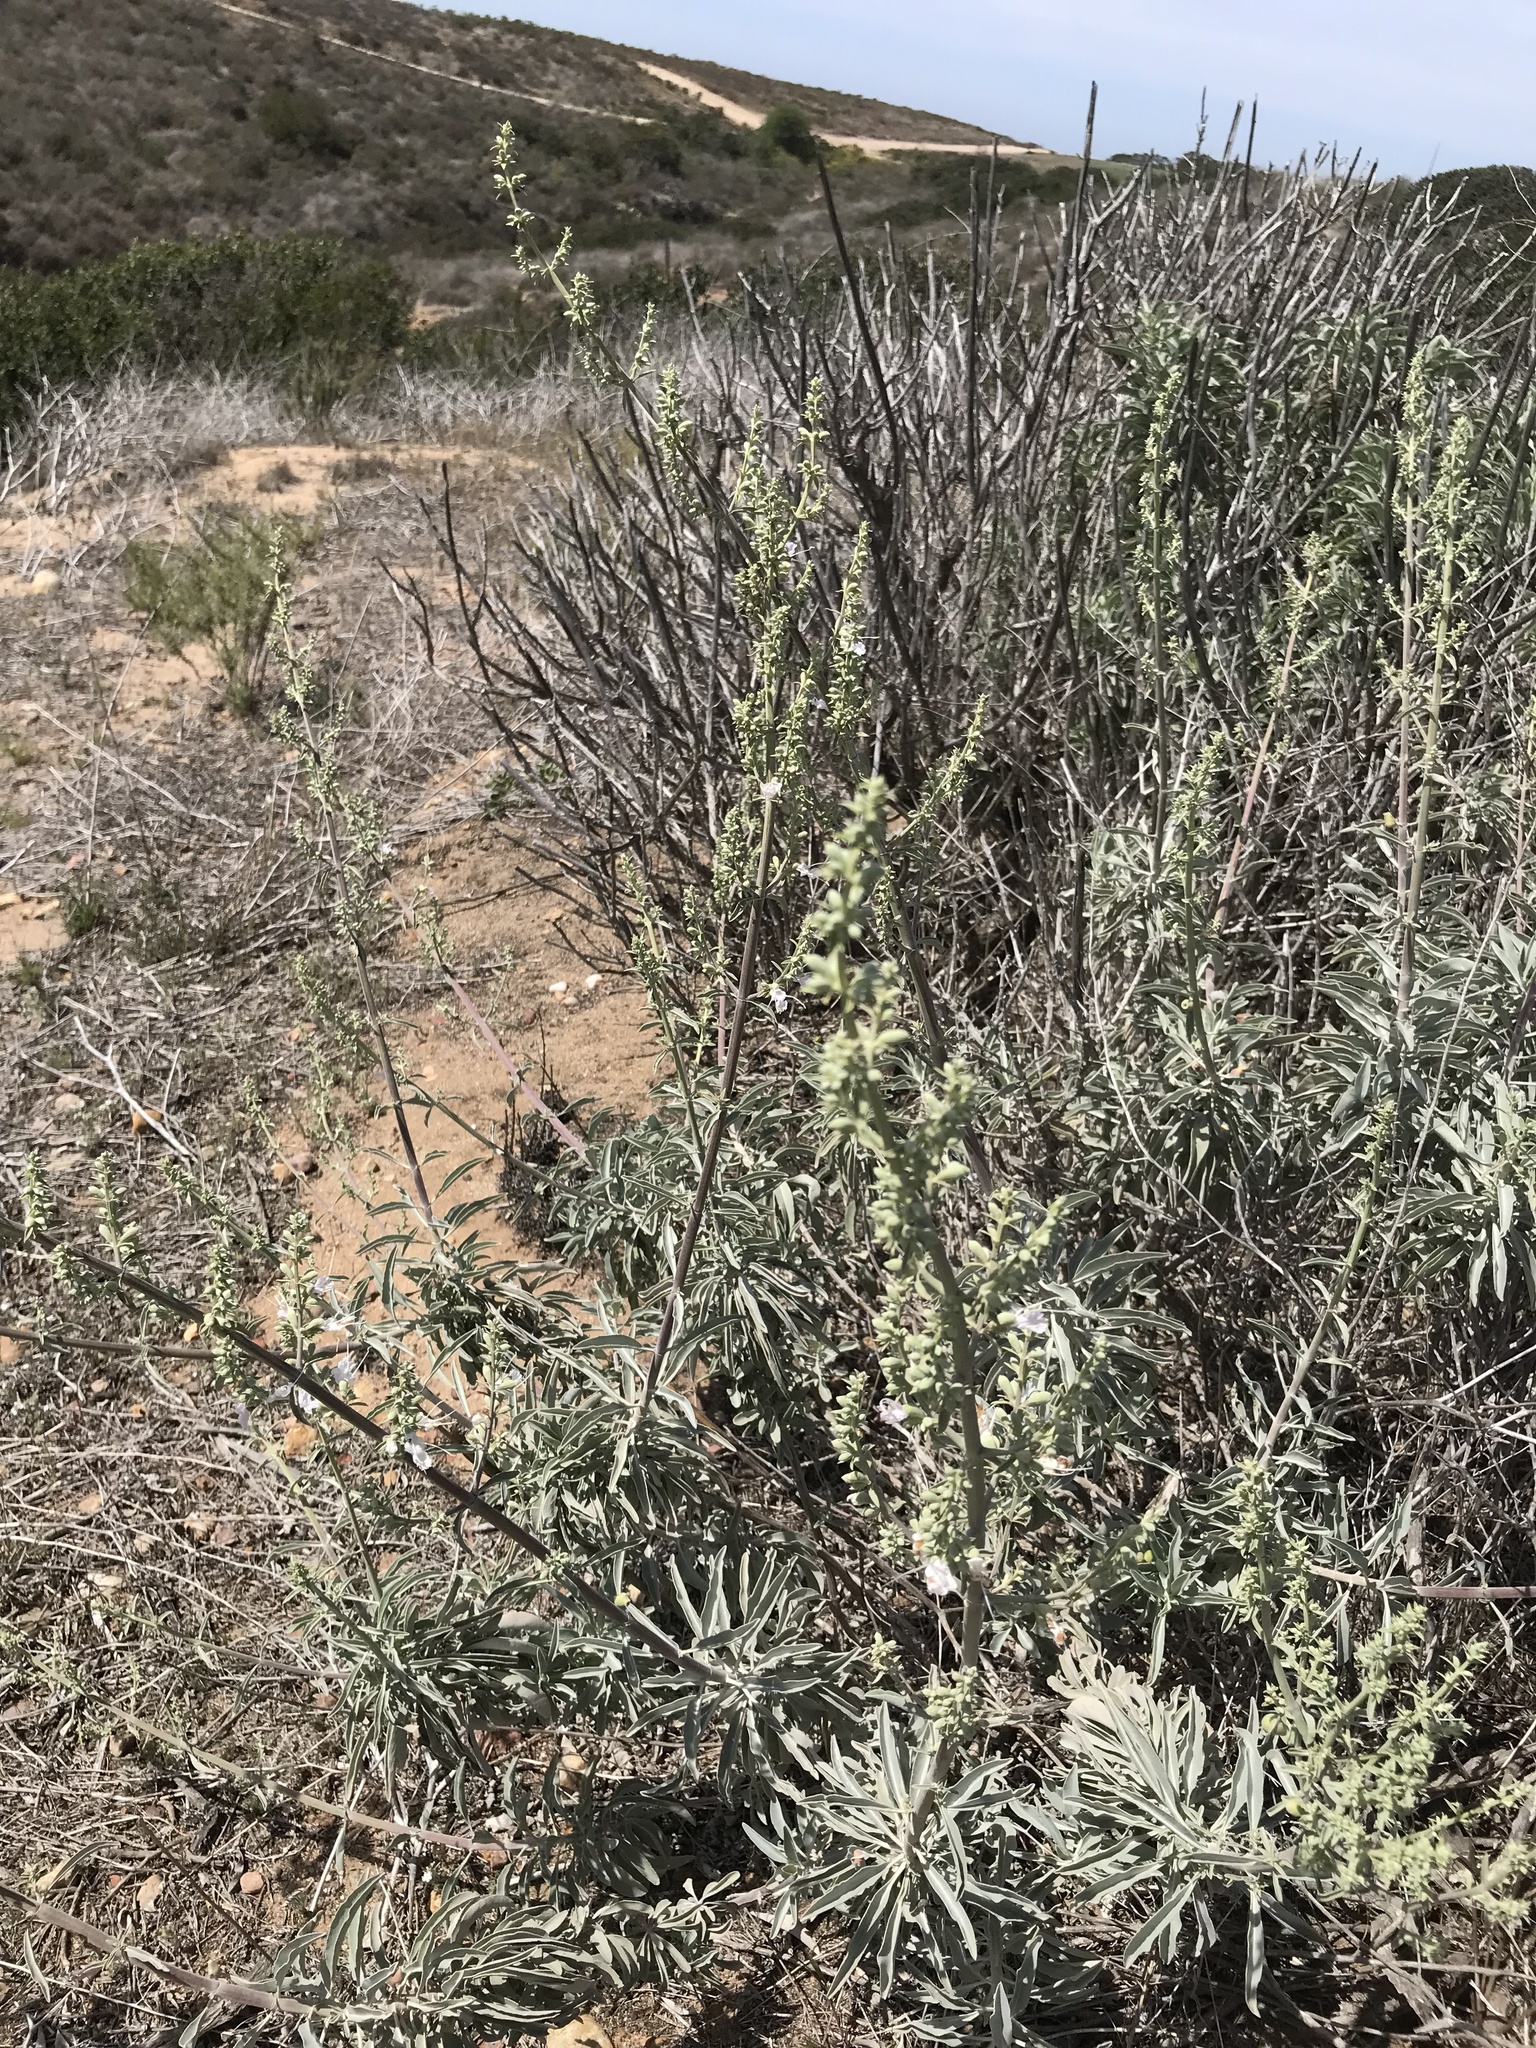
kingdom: Plantae
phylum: Tracheophyta
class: Magnoliopsida
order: Lamiales
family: Lamiaceae
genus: Salvia
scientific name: Salvia apiana
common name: White sage
